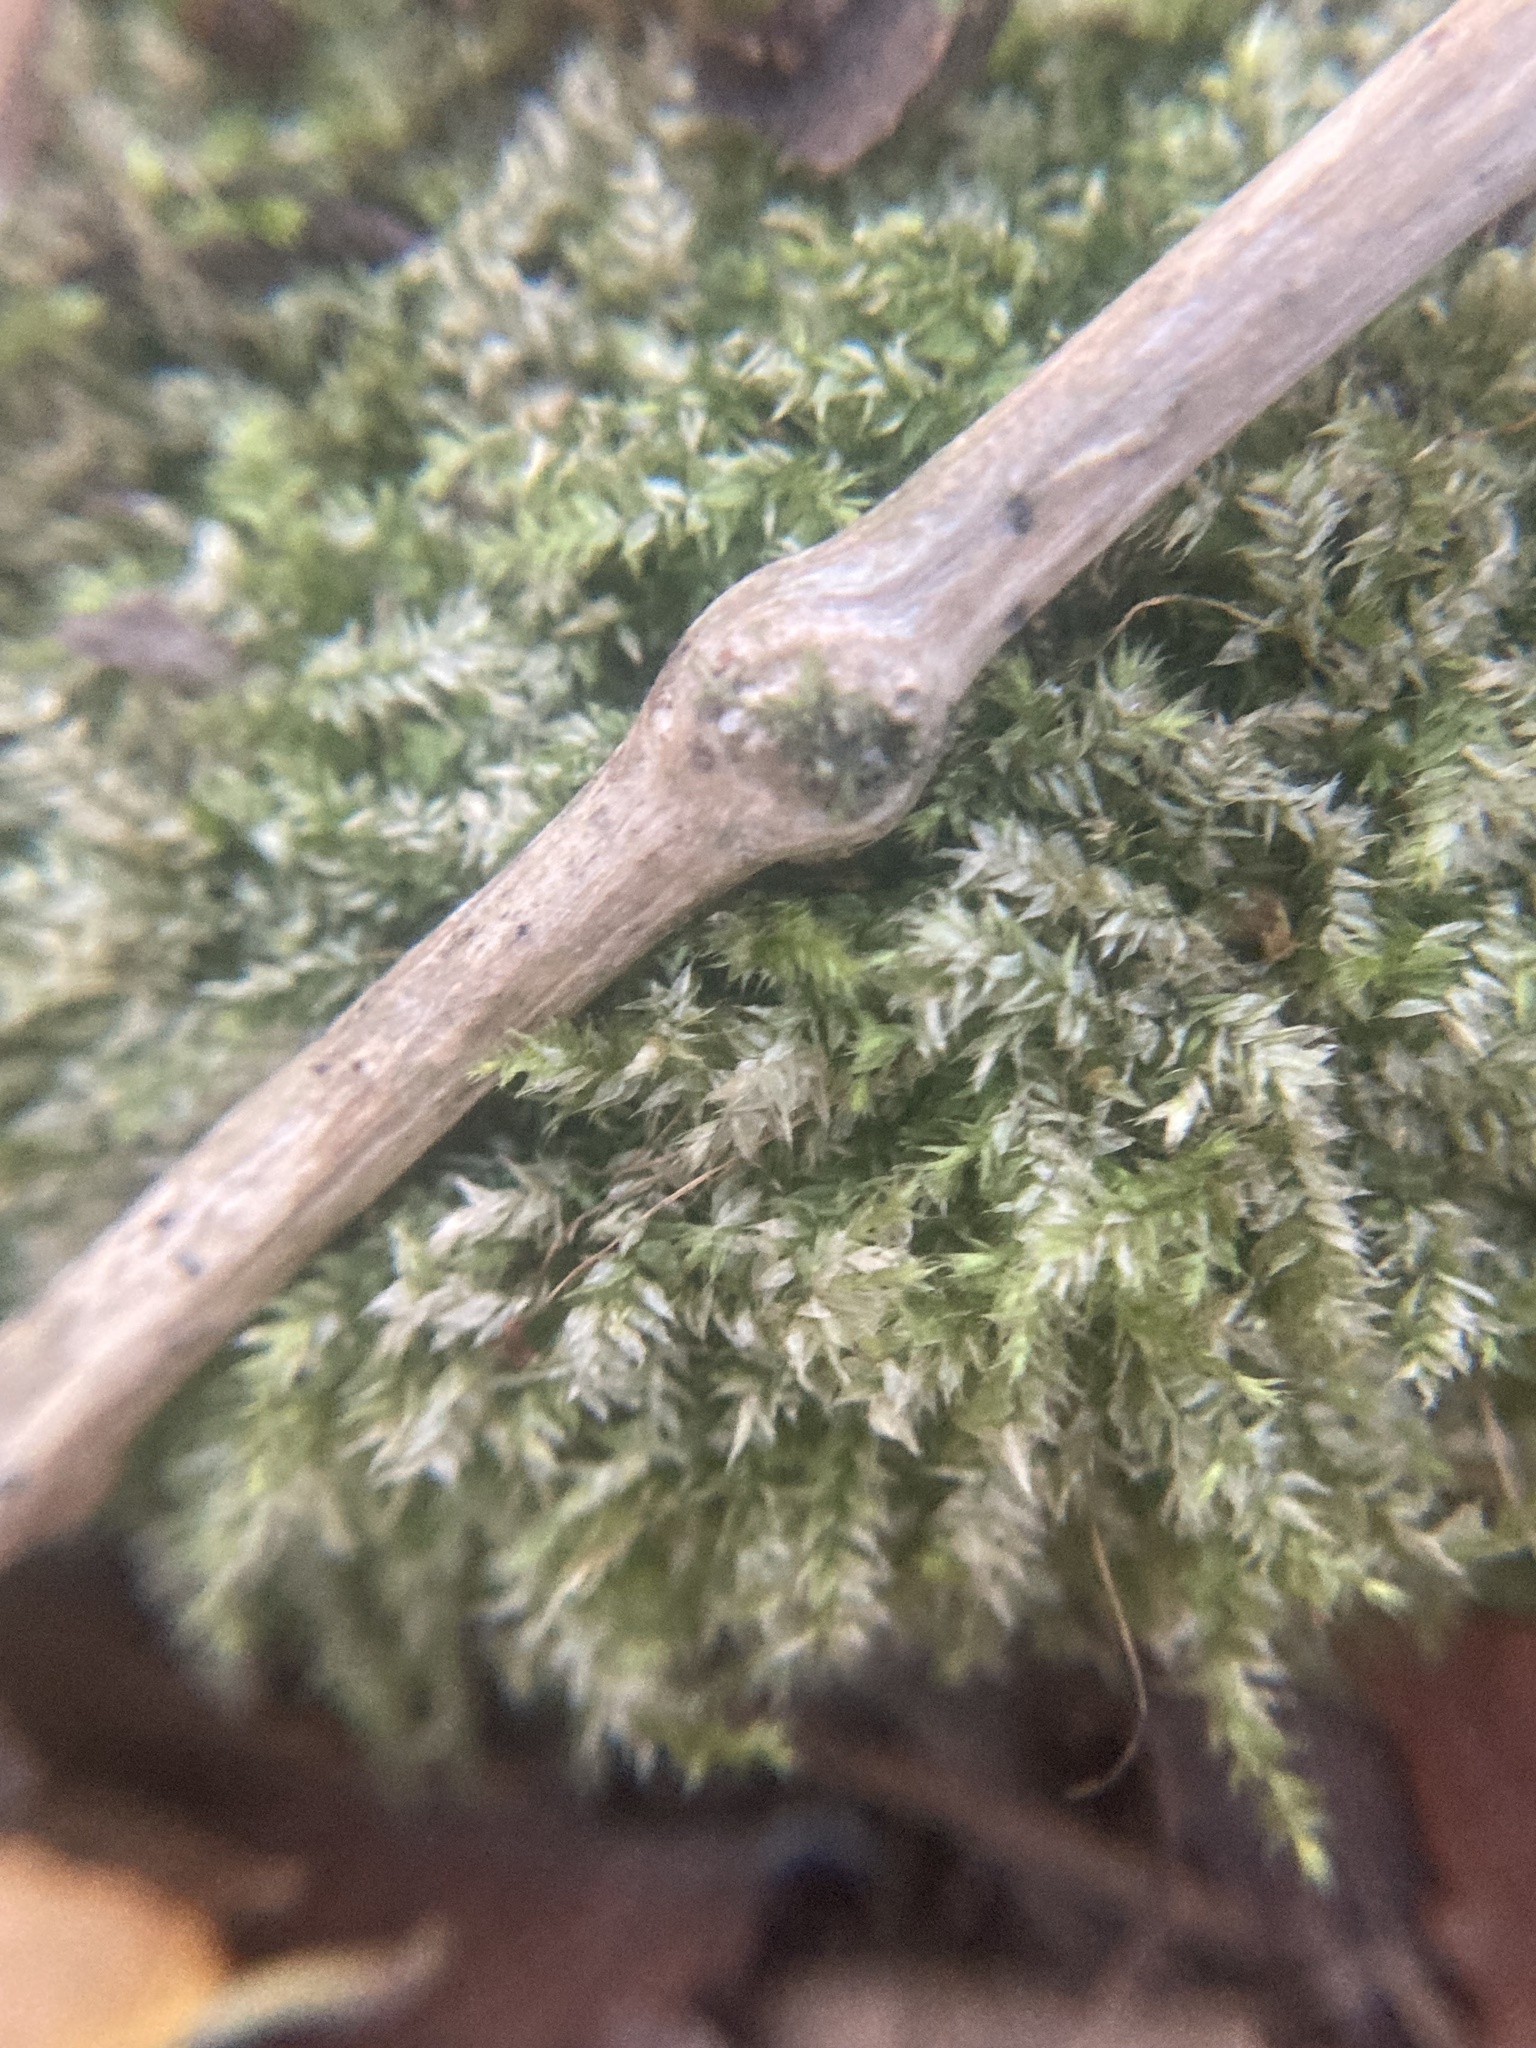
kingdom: Plantae
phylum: Bryophyta
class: Bryopsida
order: Hypnales
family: Pylaisiadelphaceae
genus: Isopterygium
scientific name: Isopterygium tenerum
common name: Isopterygium moss
